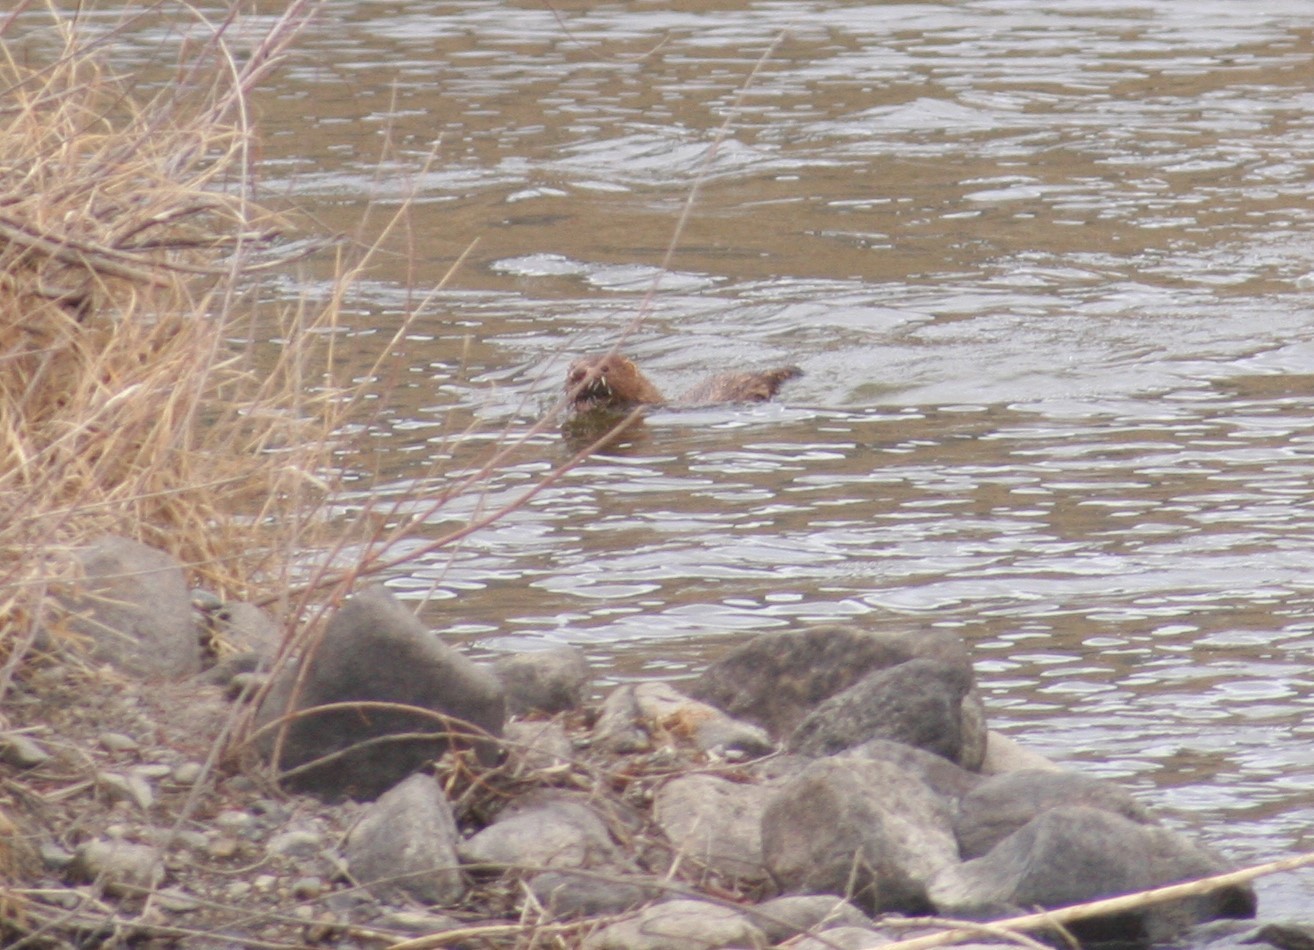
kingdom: Animalia
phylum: Chordata
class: Mammalia
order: Carnivora
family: Mustelidae
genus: Mustela
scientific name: Mustela
